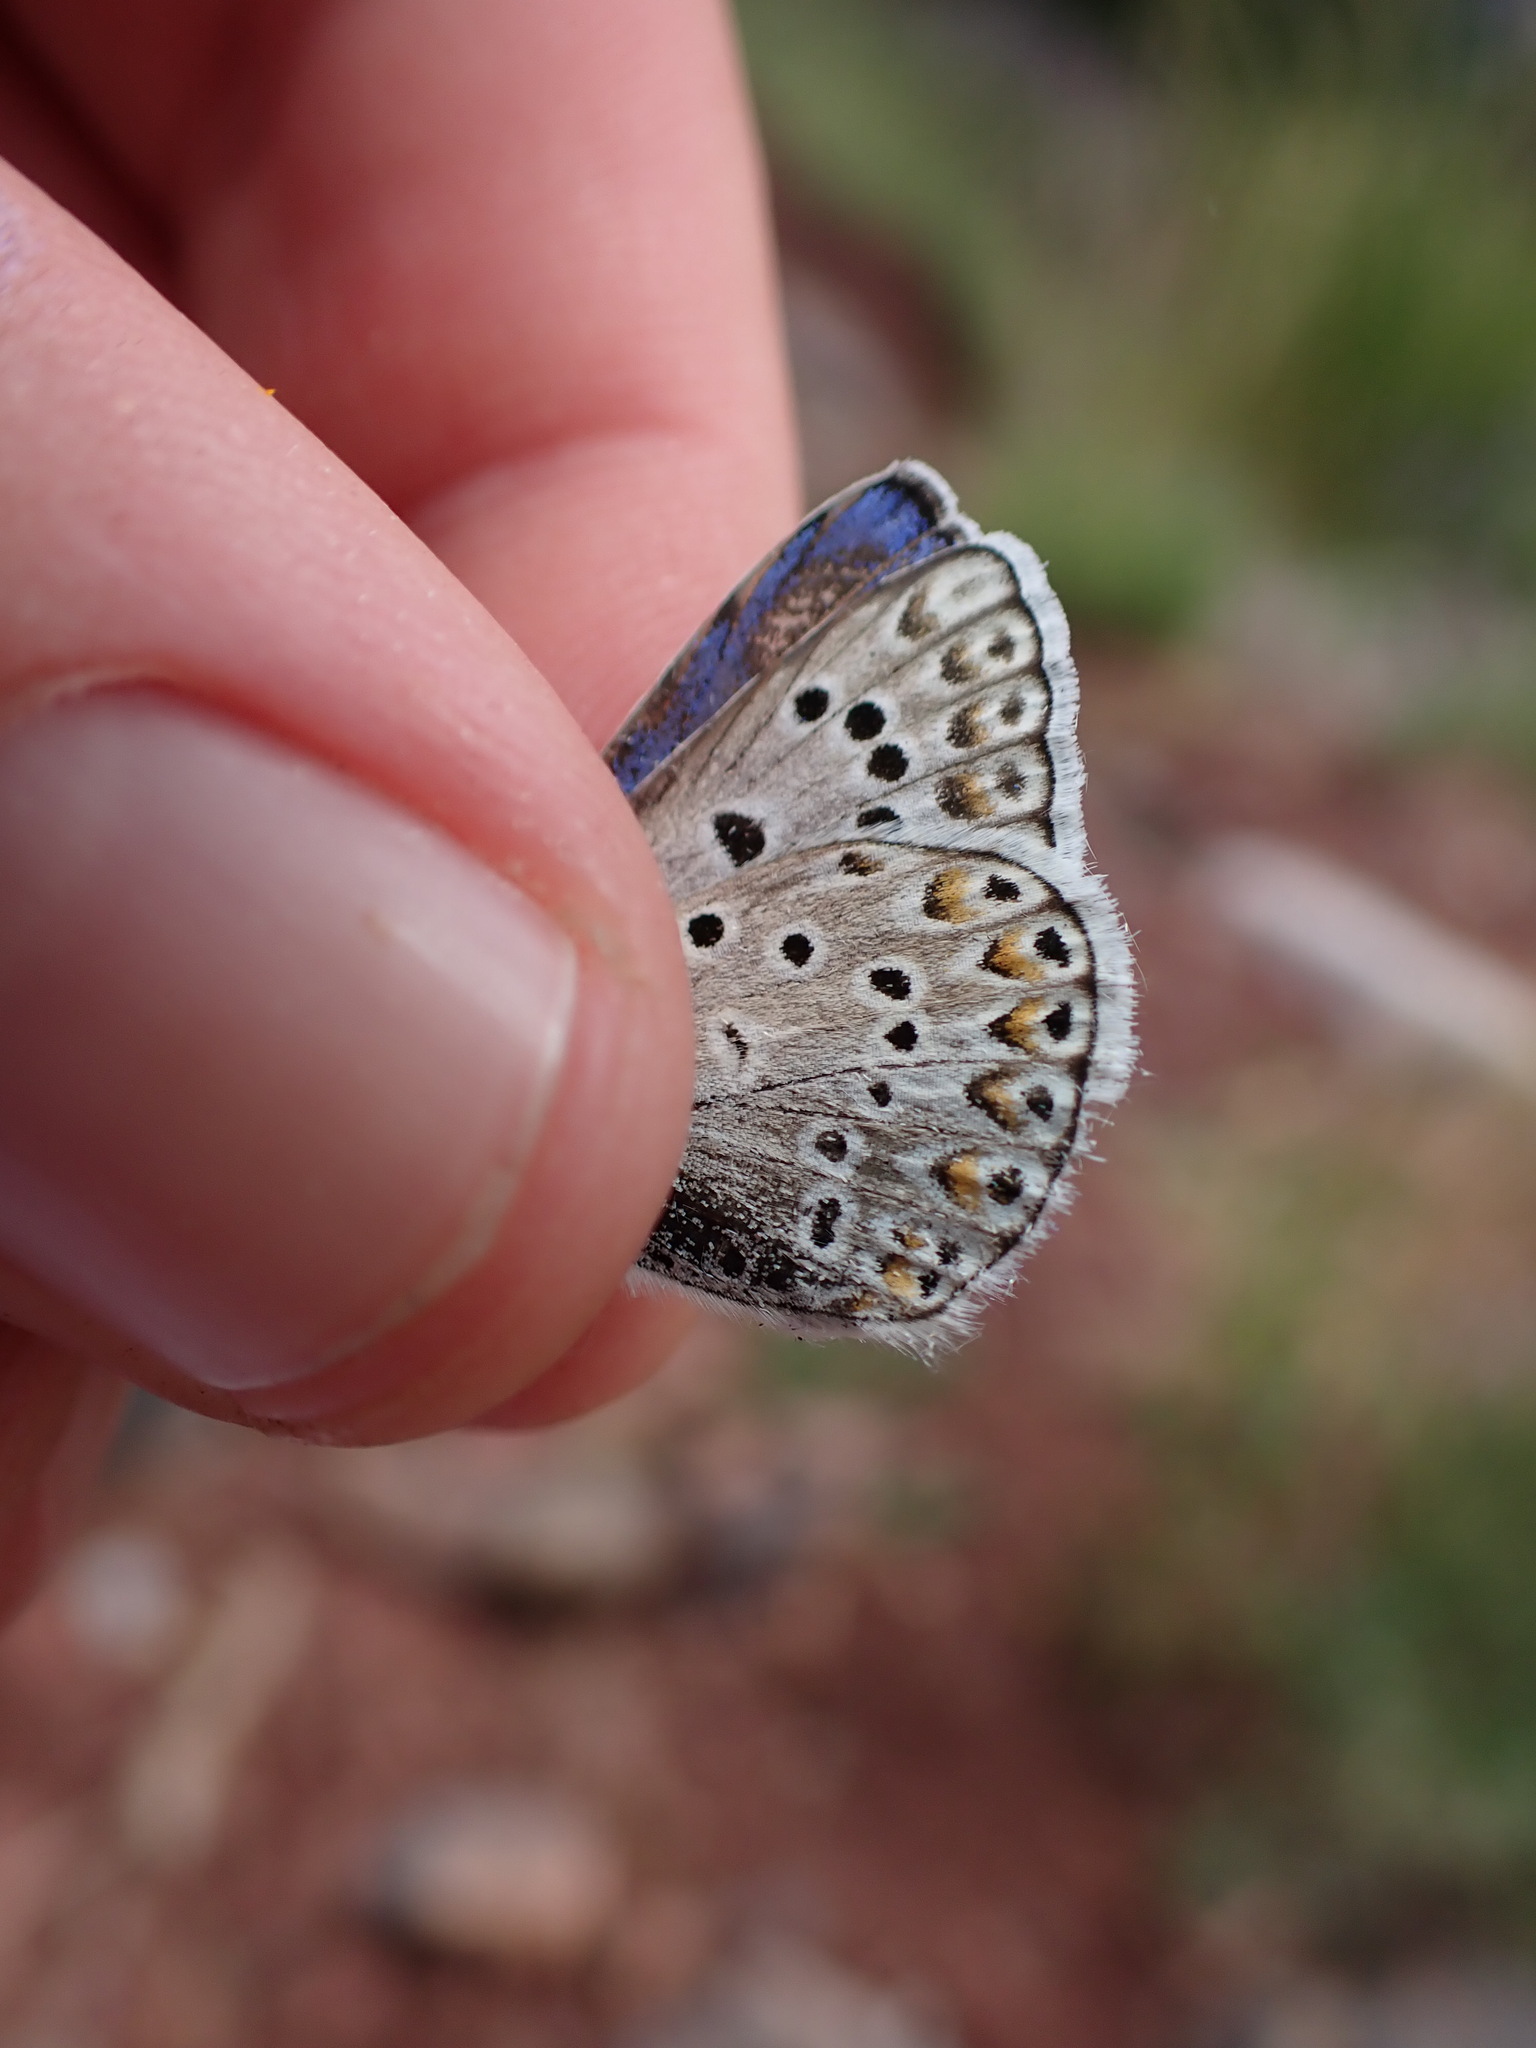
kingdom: Animalia
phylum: Arthropoda
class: Insecta
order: Lepidoptera
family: Lycaenidae
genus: Plebicula
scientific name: Plebicula escheri
